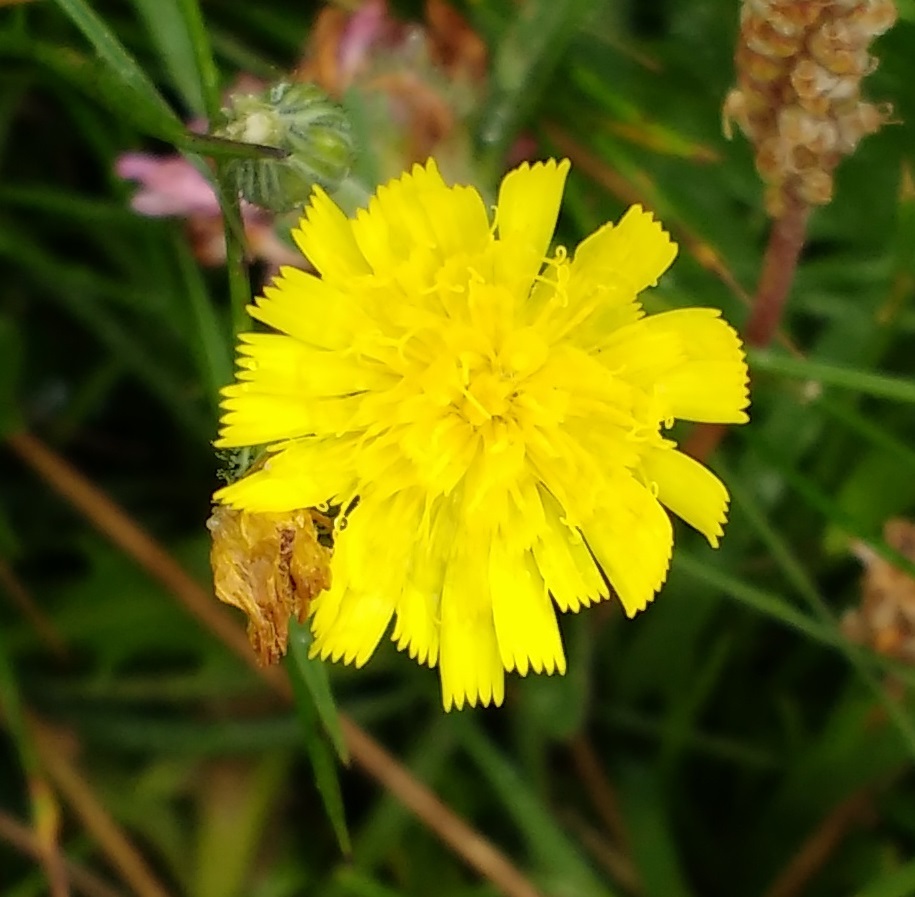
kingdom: Plantae
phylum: Tracheophyta
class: Magnoliopsida
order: Asterales
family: Asteraceae
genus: Pilosella
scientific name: Pilosella officinarum
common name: Mouse-ear hawkweed
